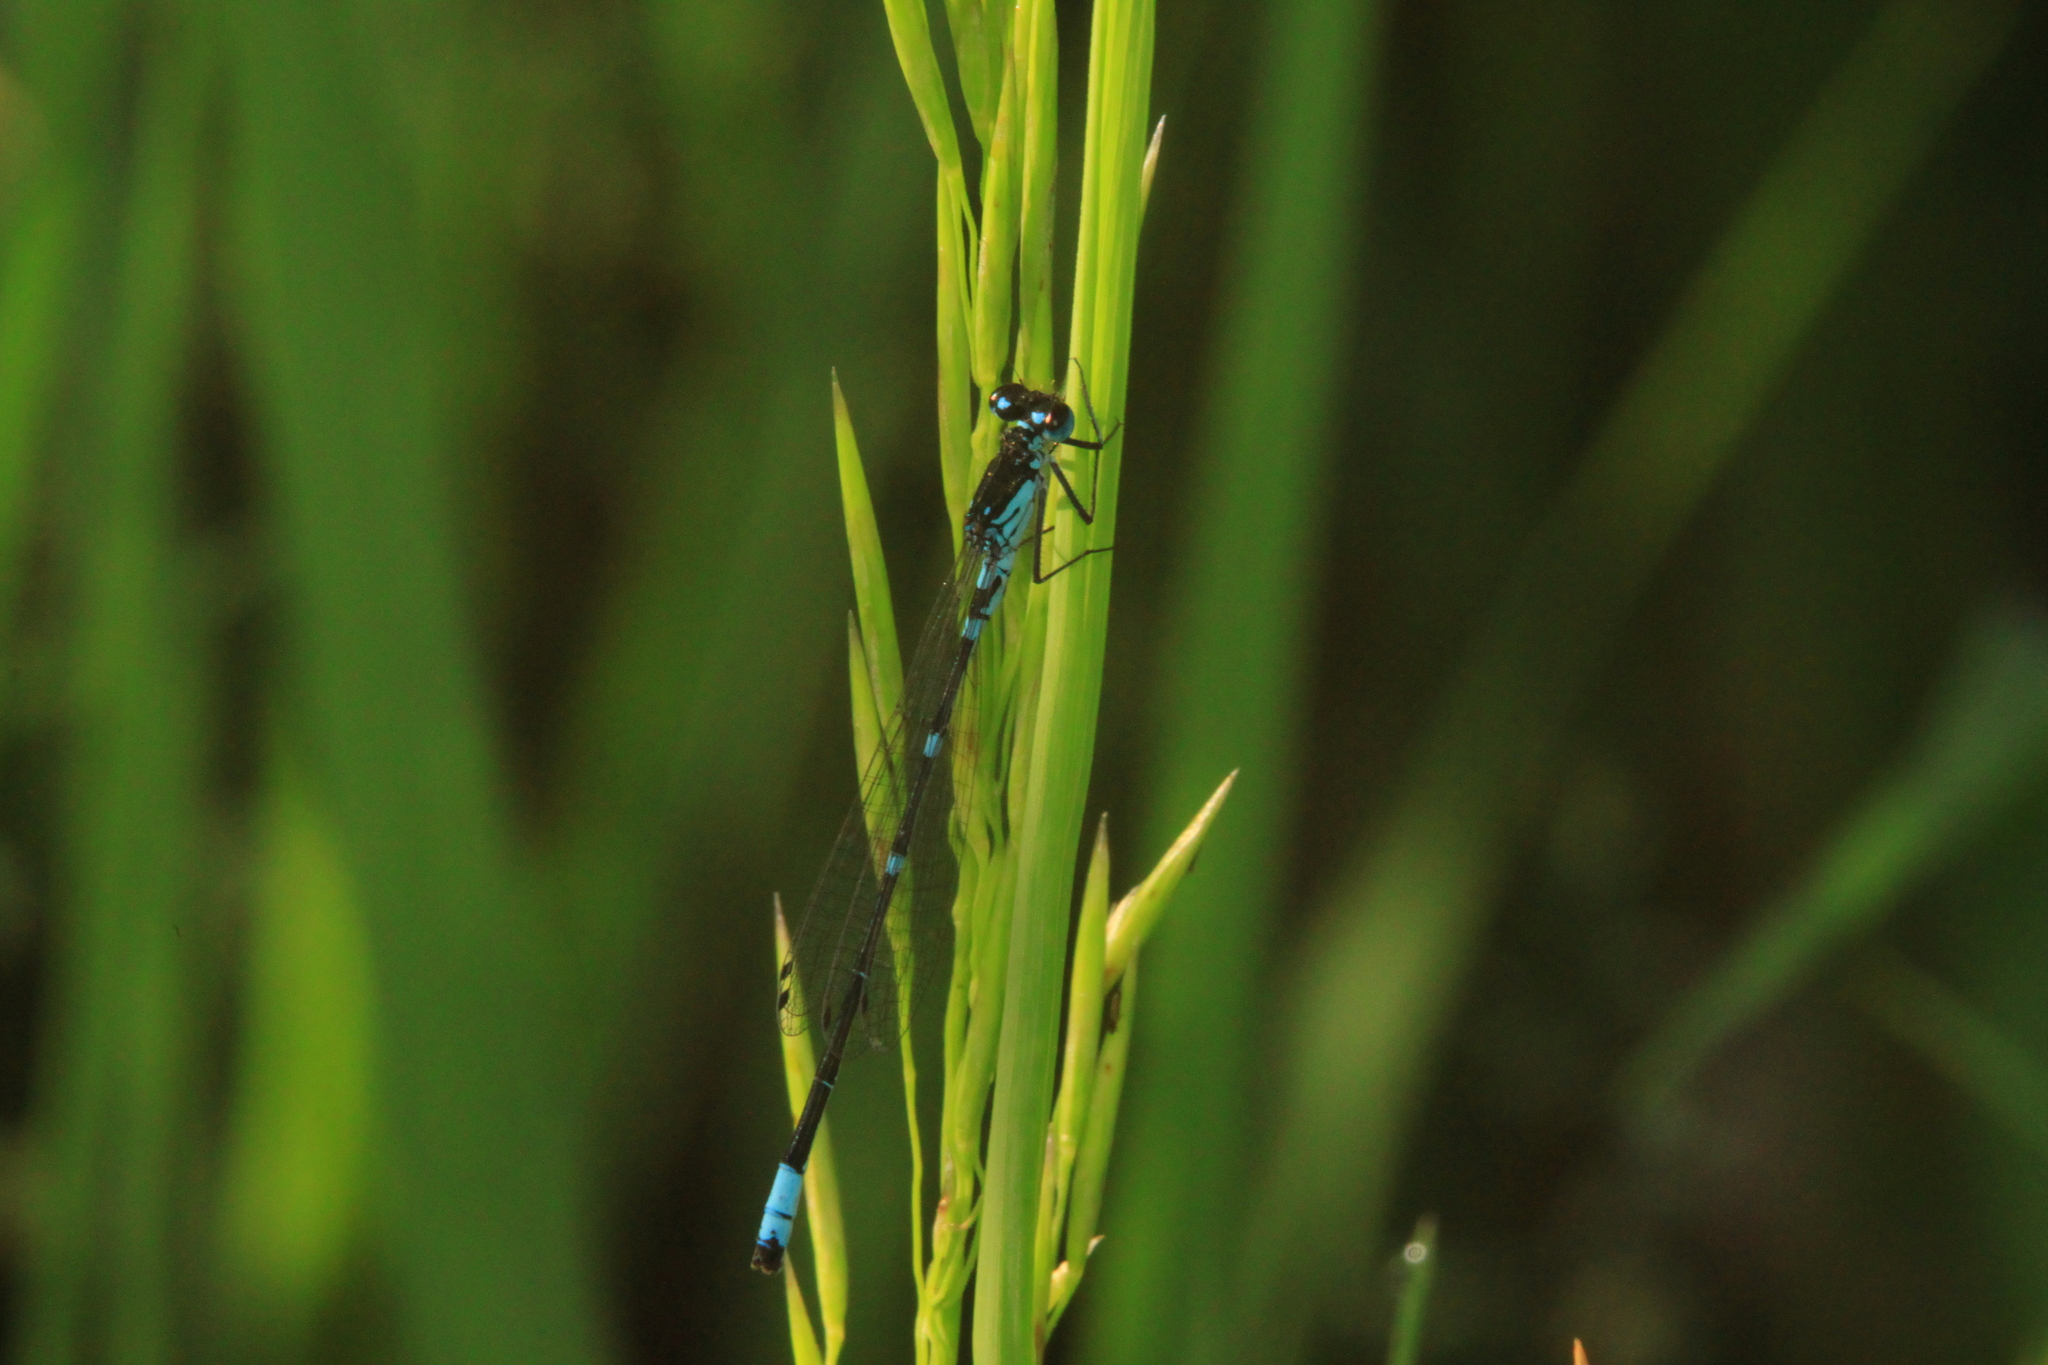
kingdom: Animalia
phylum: Arthropoda
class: Insecta
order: Odonata
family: Coenagrionidae
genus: Coenagrion
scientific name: Coenagrion pulchellum
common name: Variable bluet
